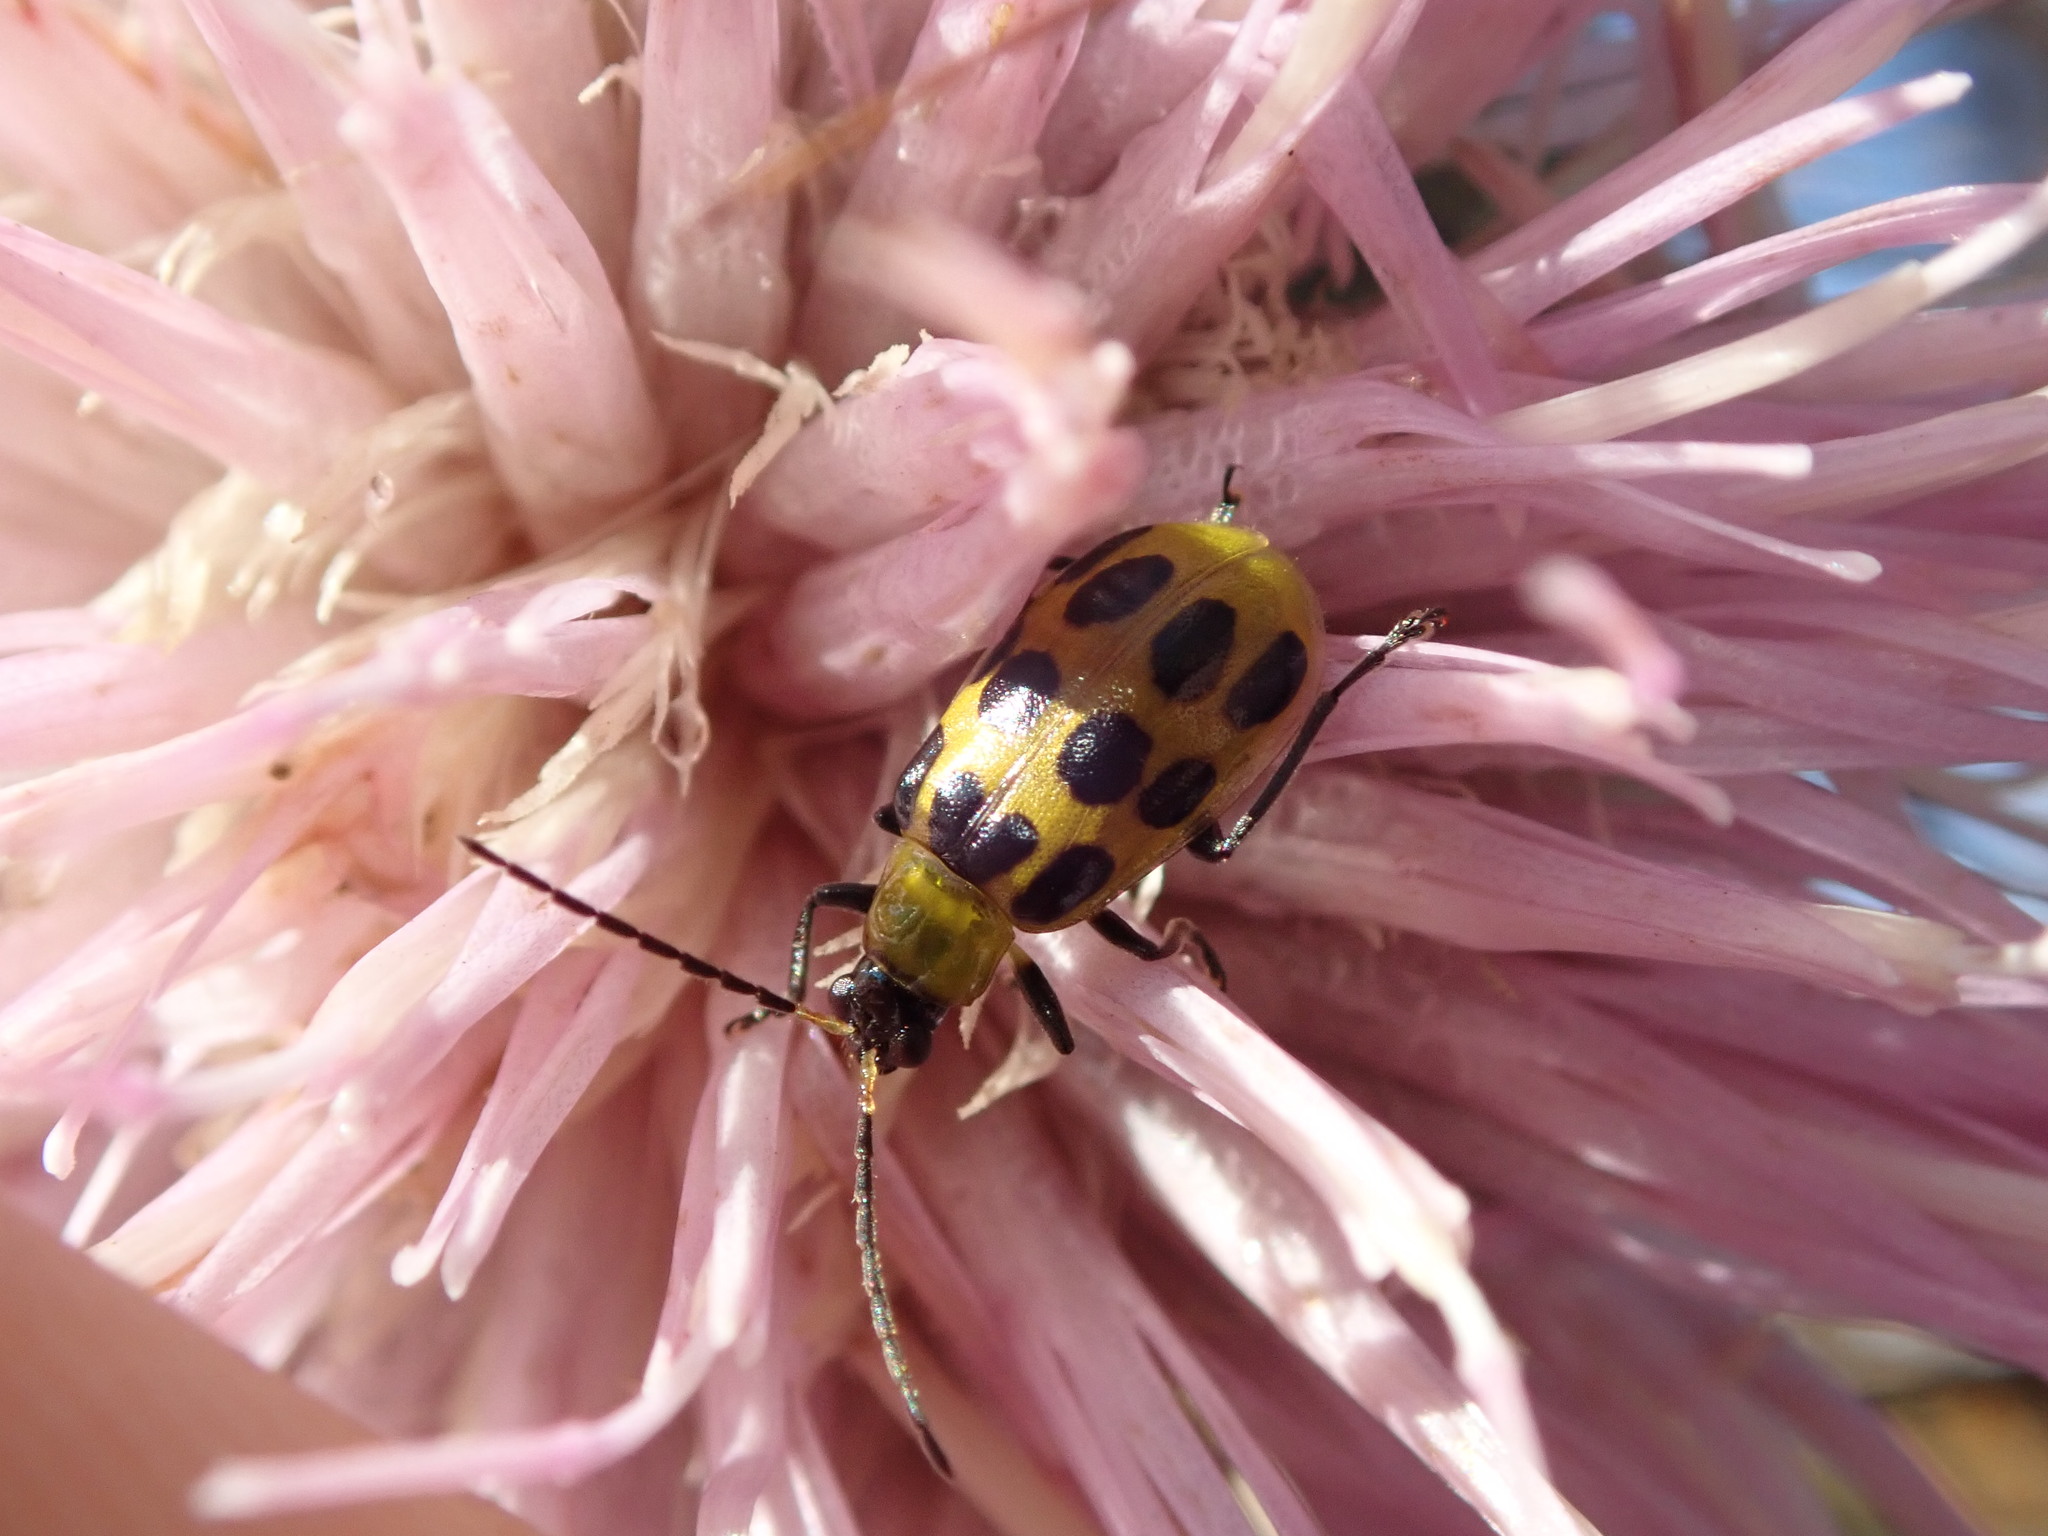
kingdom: Animalia
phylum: Arthropoda
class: Insecta
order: Coleoptera
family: Chrysomelidae
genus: Diabrotica
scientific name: Diabrotica undecimpunctata
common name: Spotted cucumber beetle
